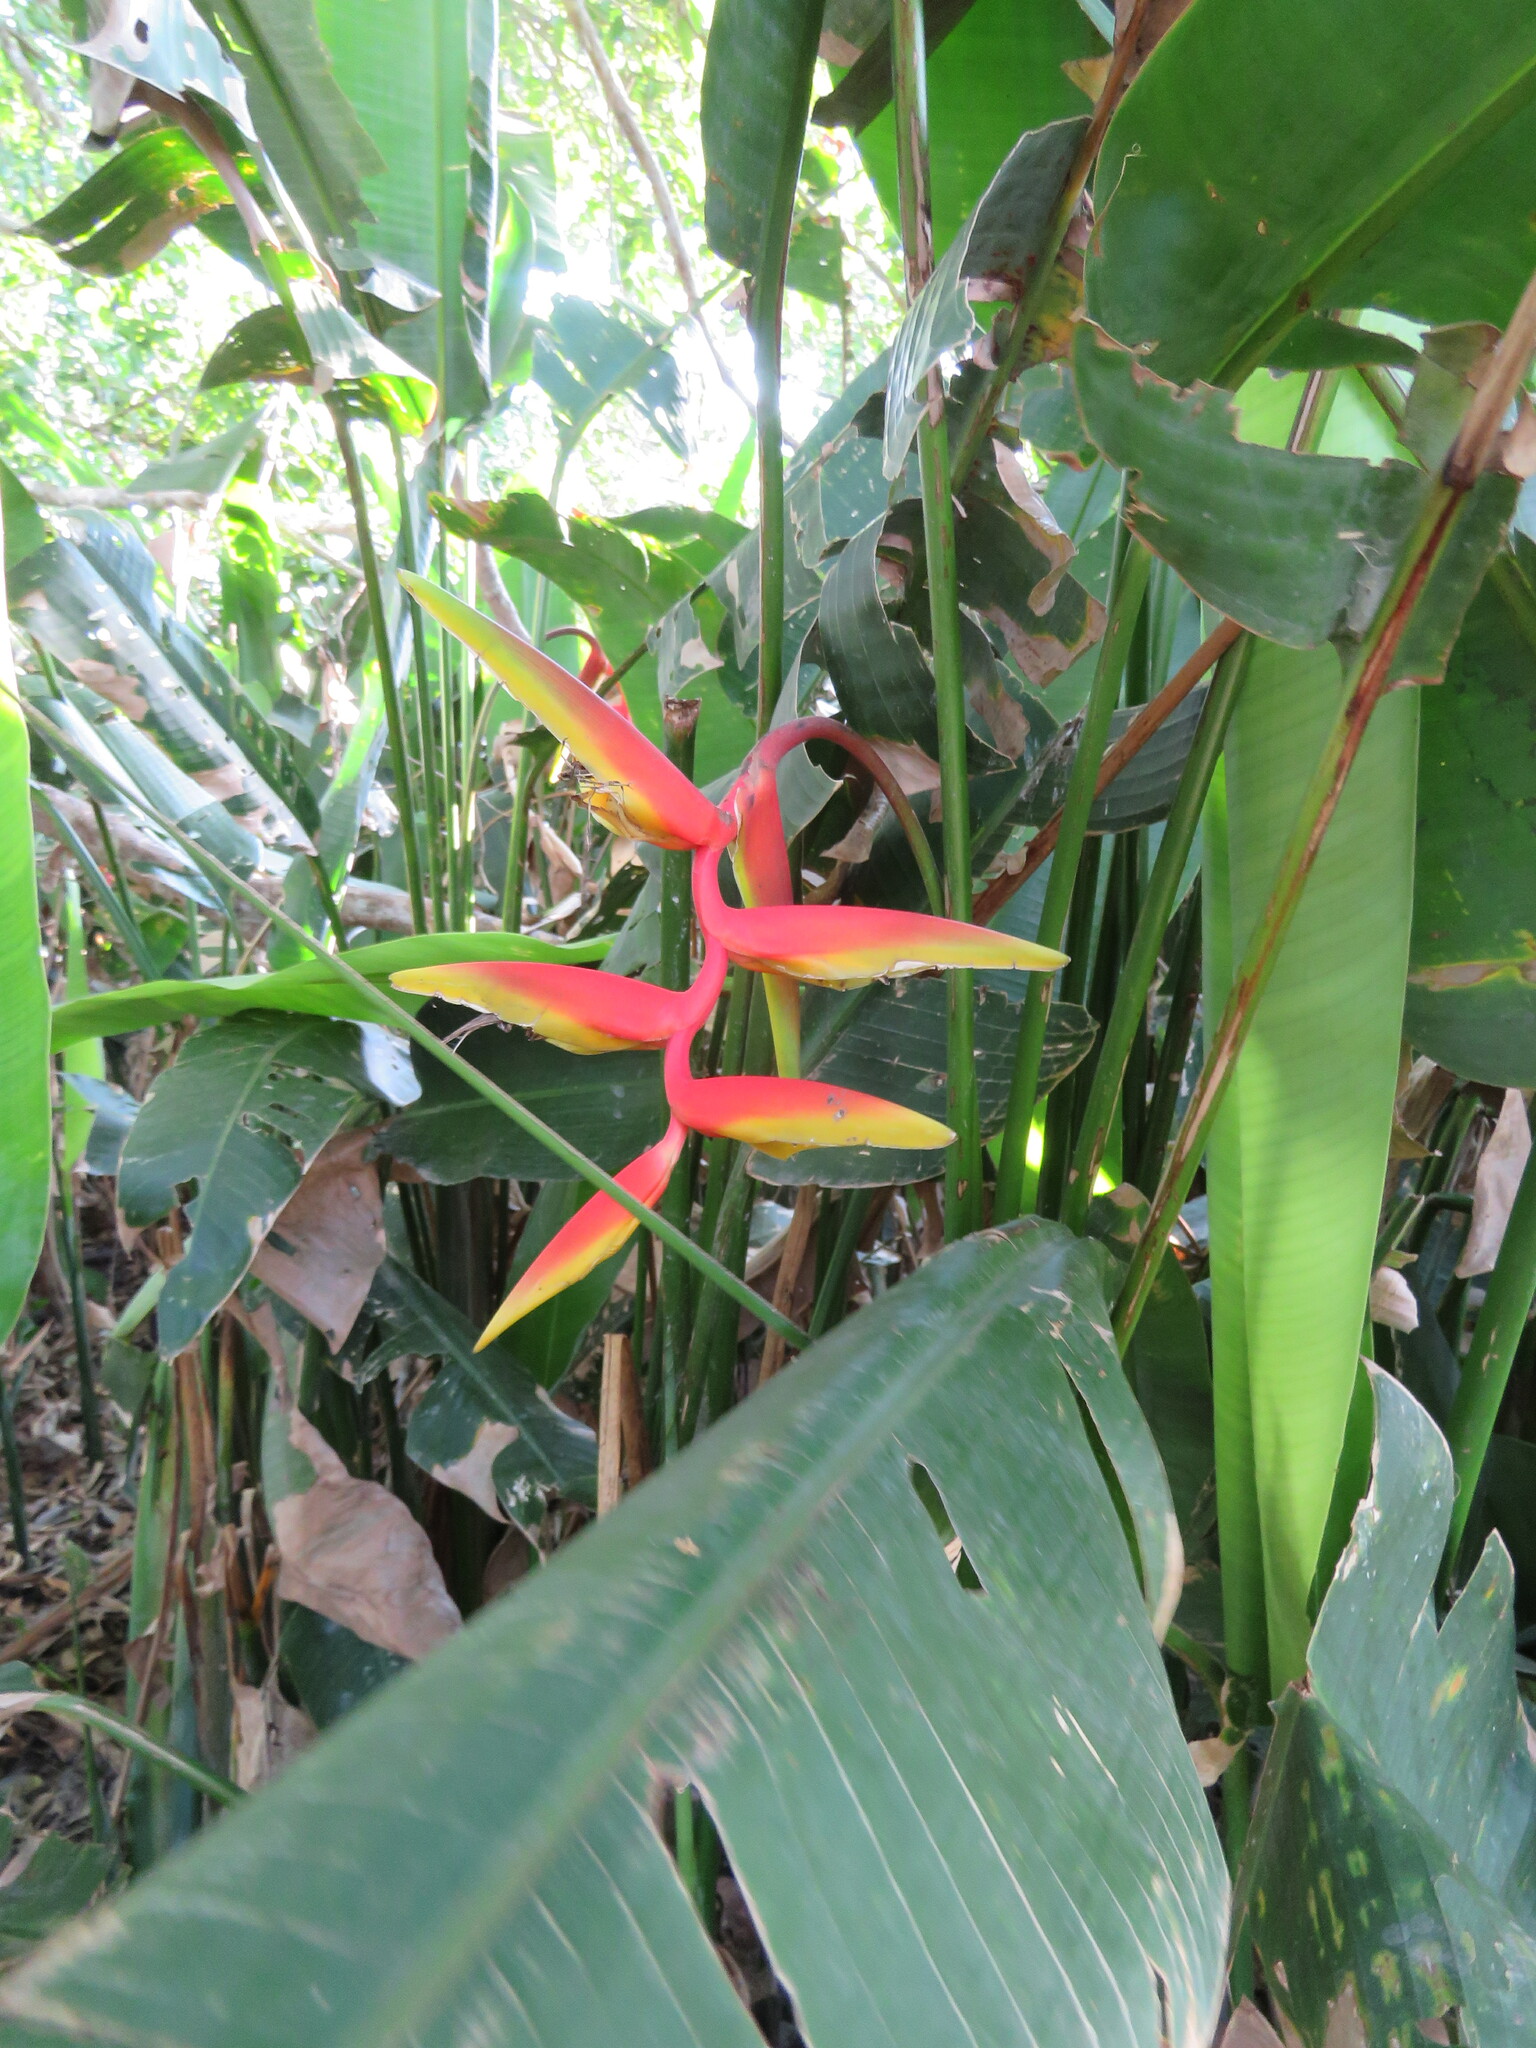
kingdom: Plantae
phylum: Tracheophyta
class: Liliopsida
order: Zingiberales
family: Heliconiaceae
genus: Heliconia
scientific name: Heliconia marginata
